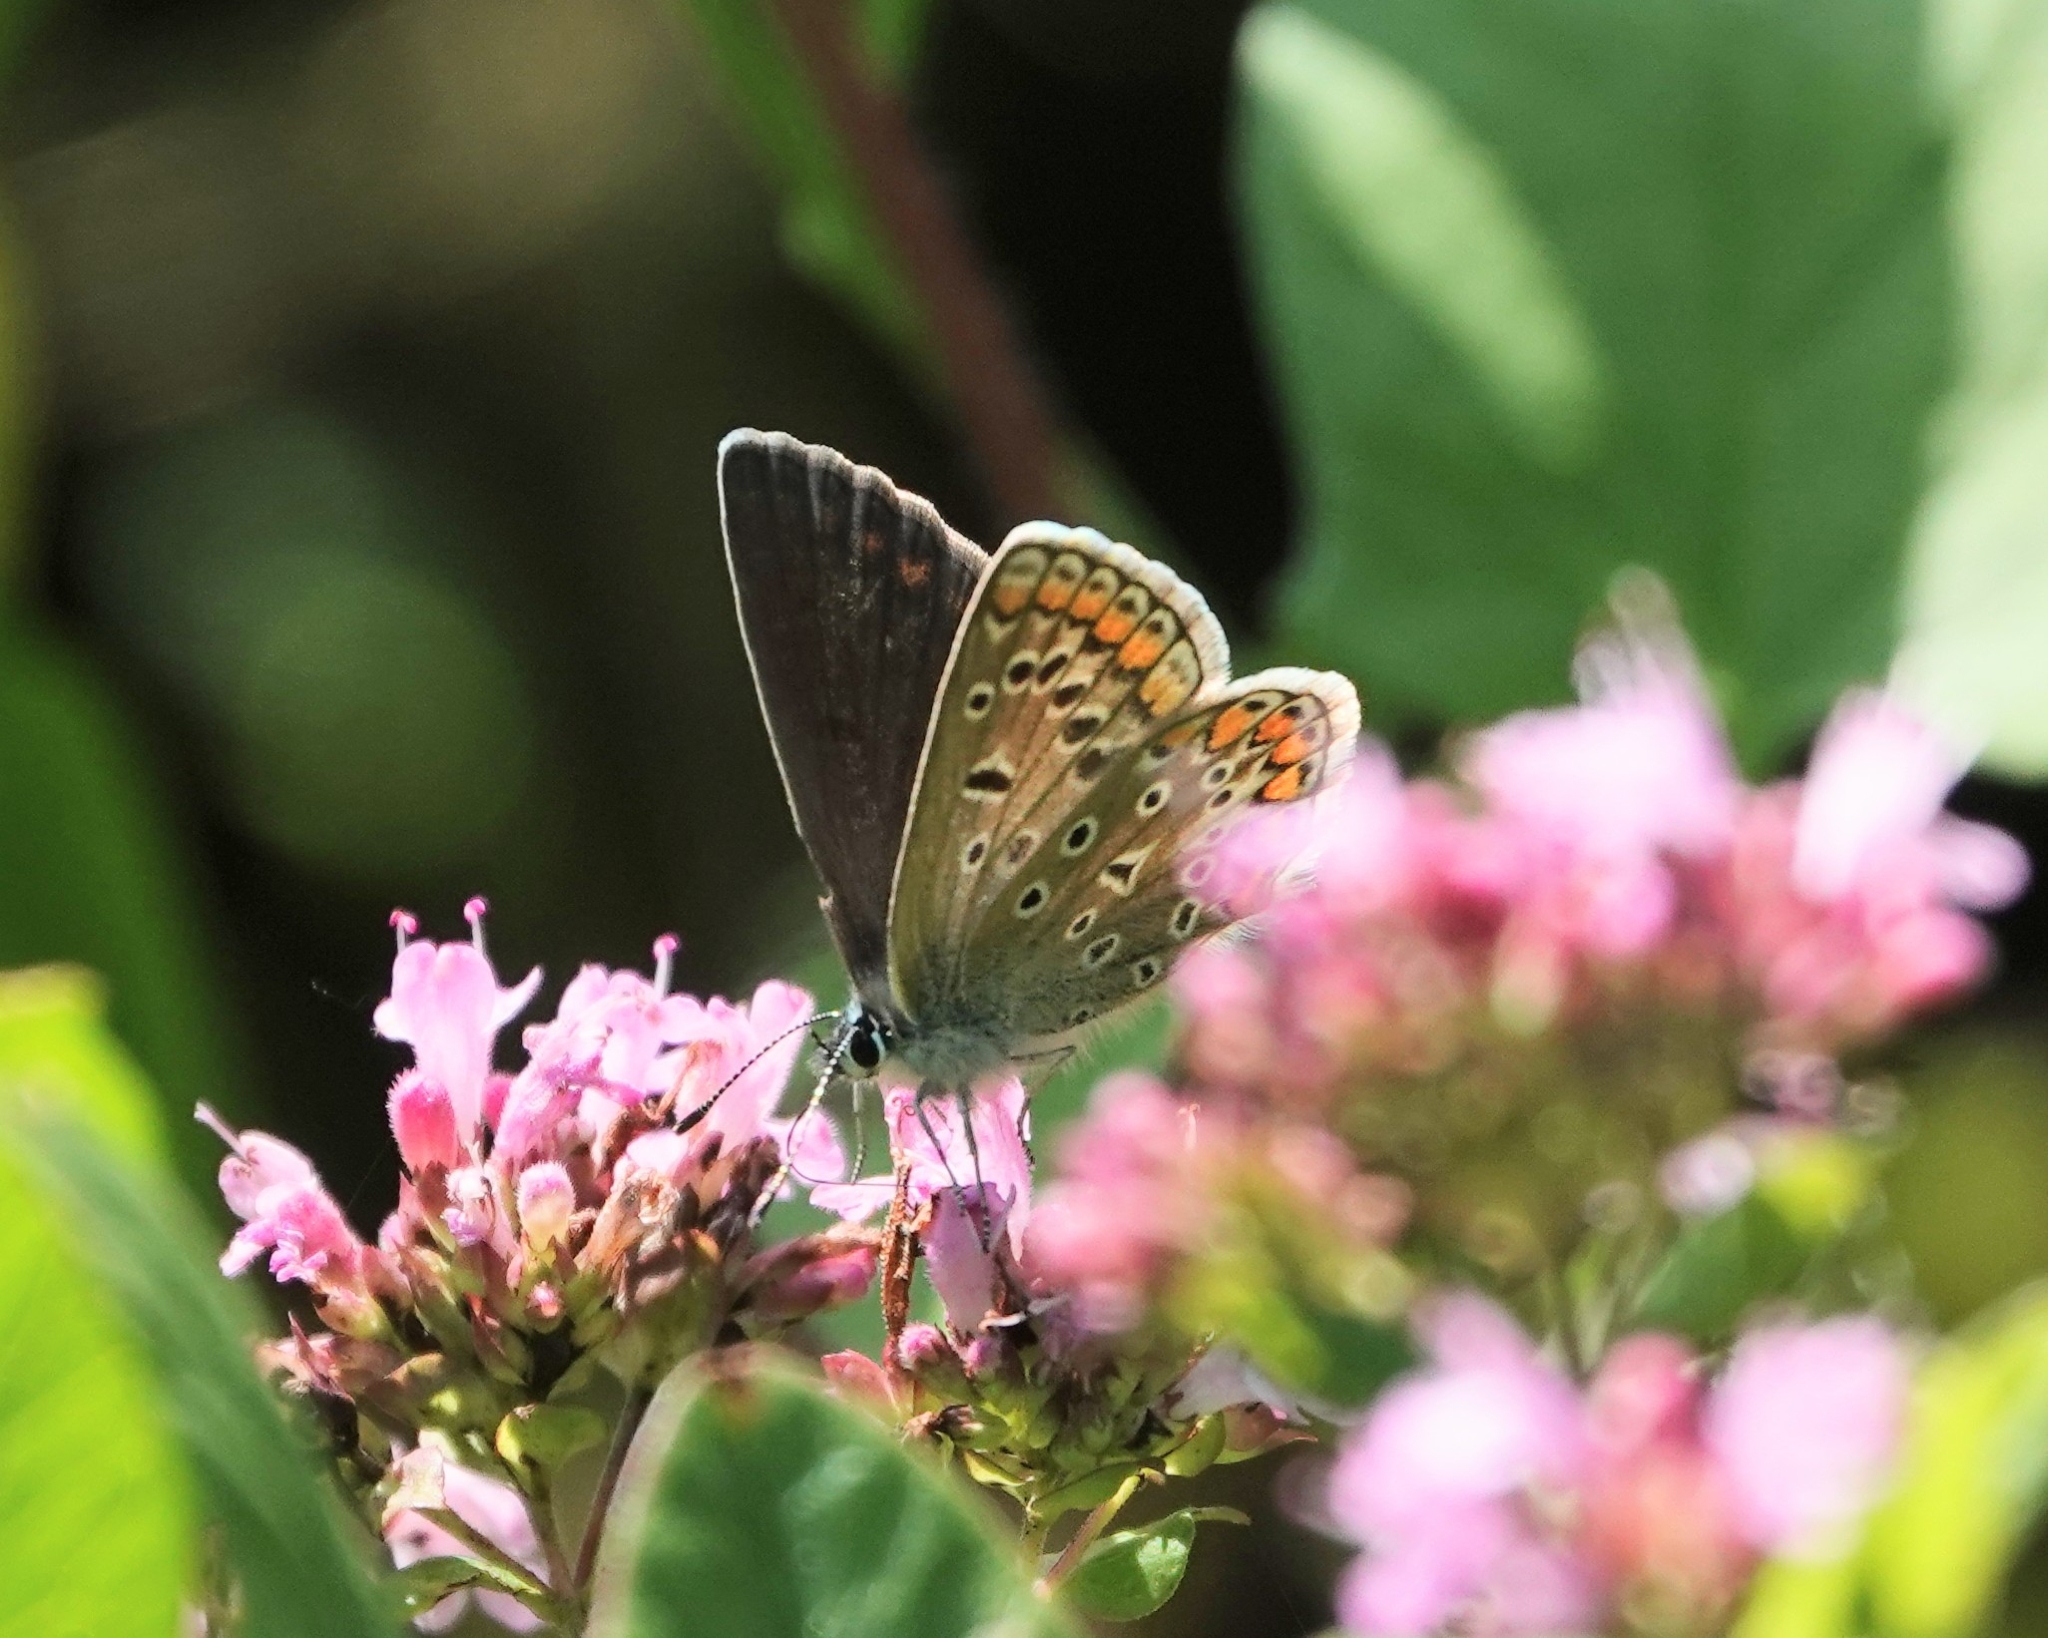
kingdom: Animalia
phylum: Arthropoda
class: Insecta
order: Lepidoptera
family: Lycaenidae
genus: Polyommatus
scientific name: Polyommatus icarus
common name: Common blue
